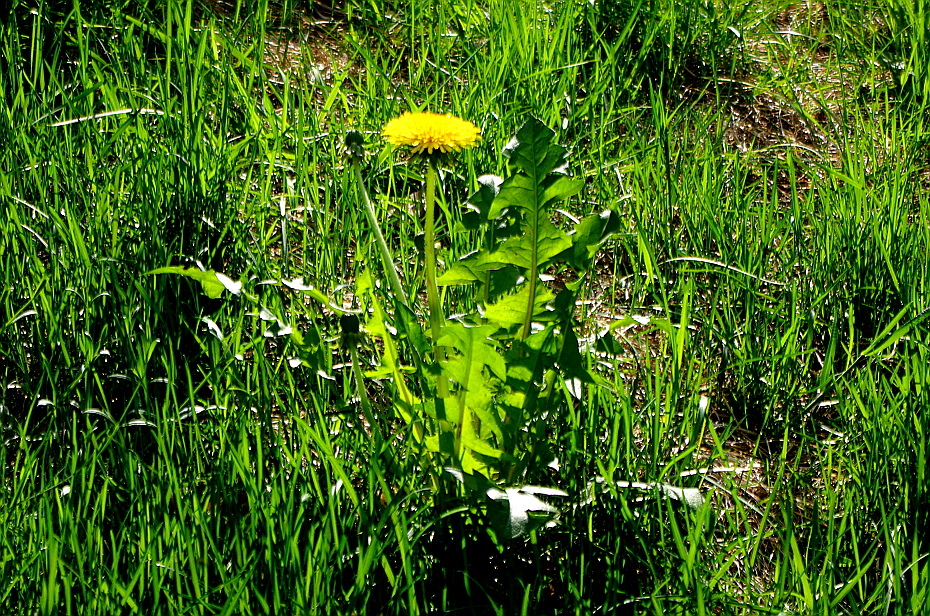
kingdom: Plantae
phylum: Tracheophyta
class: Magnoliopsida
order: Asterales
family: Asteraceae
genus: Taraxacum
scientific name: Taraxacum officinale
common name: Common dandelion
